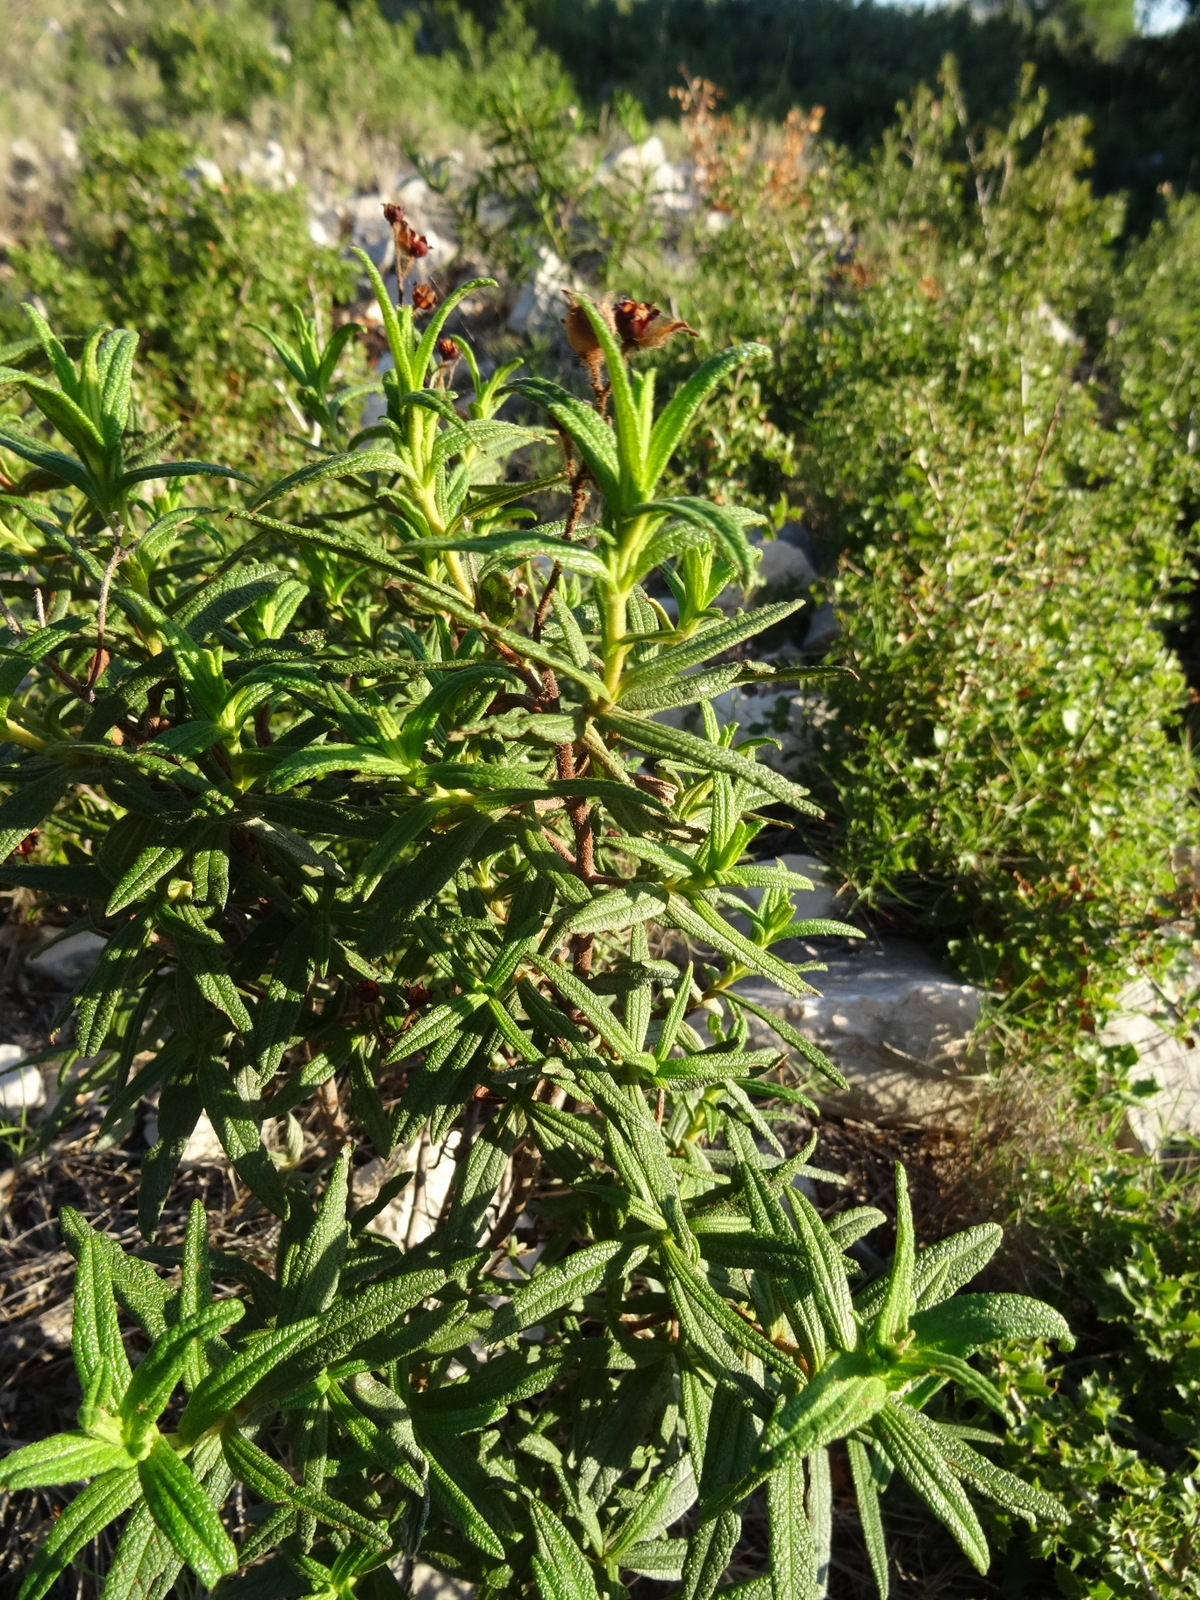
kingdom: Plantae
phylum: Tracheophyta
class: Magnoliopsida
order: Malvales
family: Cistaceae
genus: Cistus
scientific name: Cistus monspeliensis
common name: Montpelier cistus
